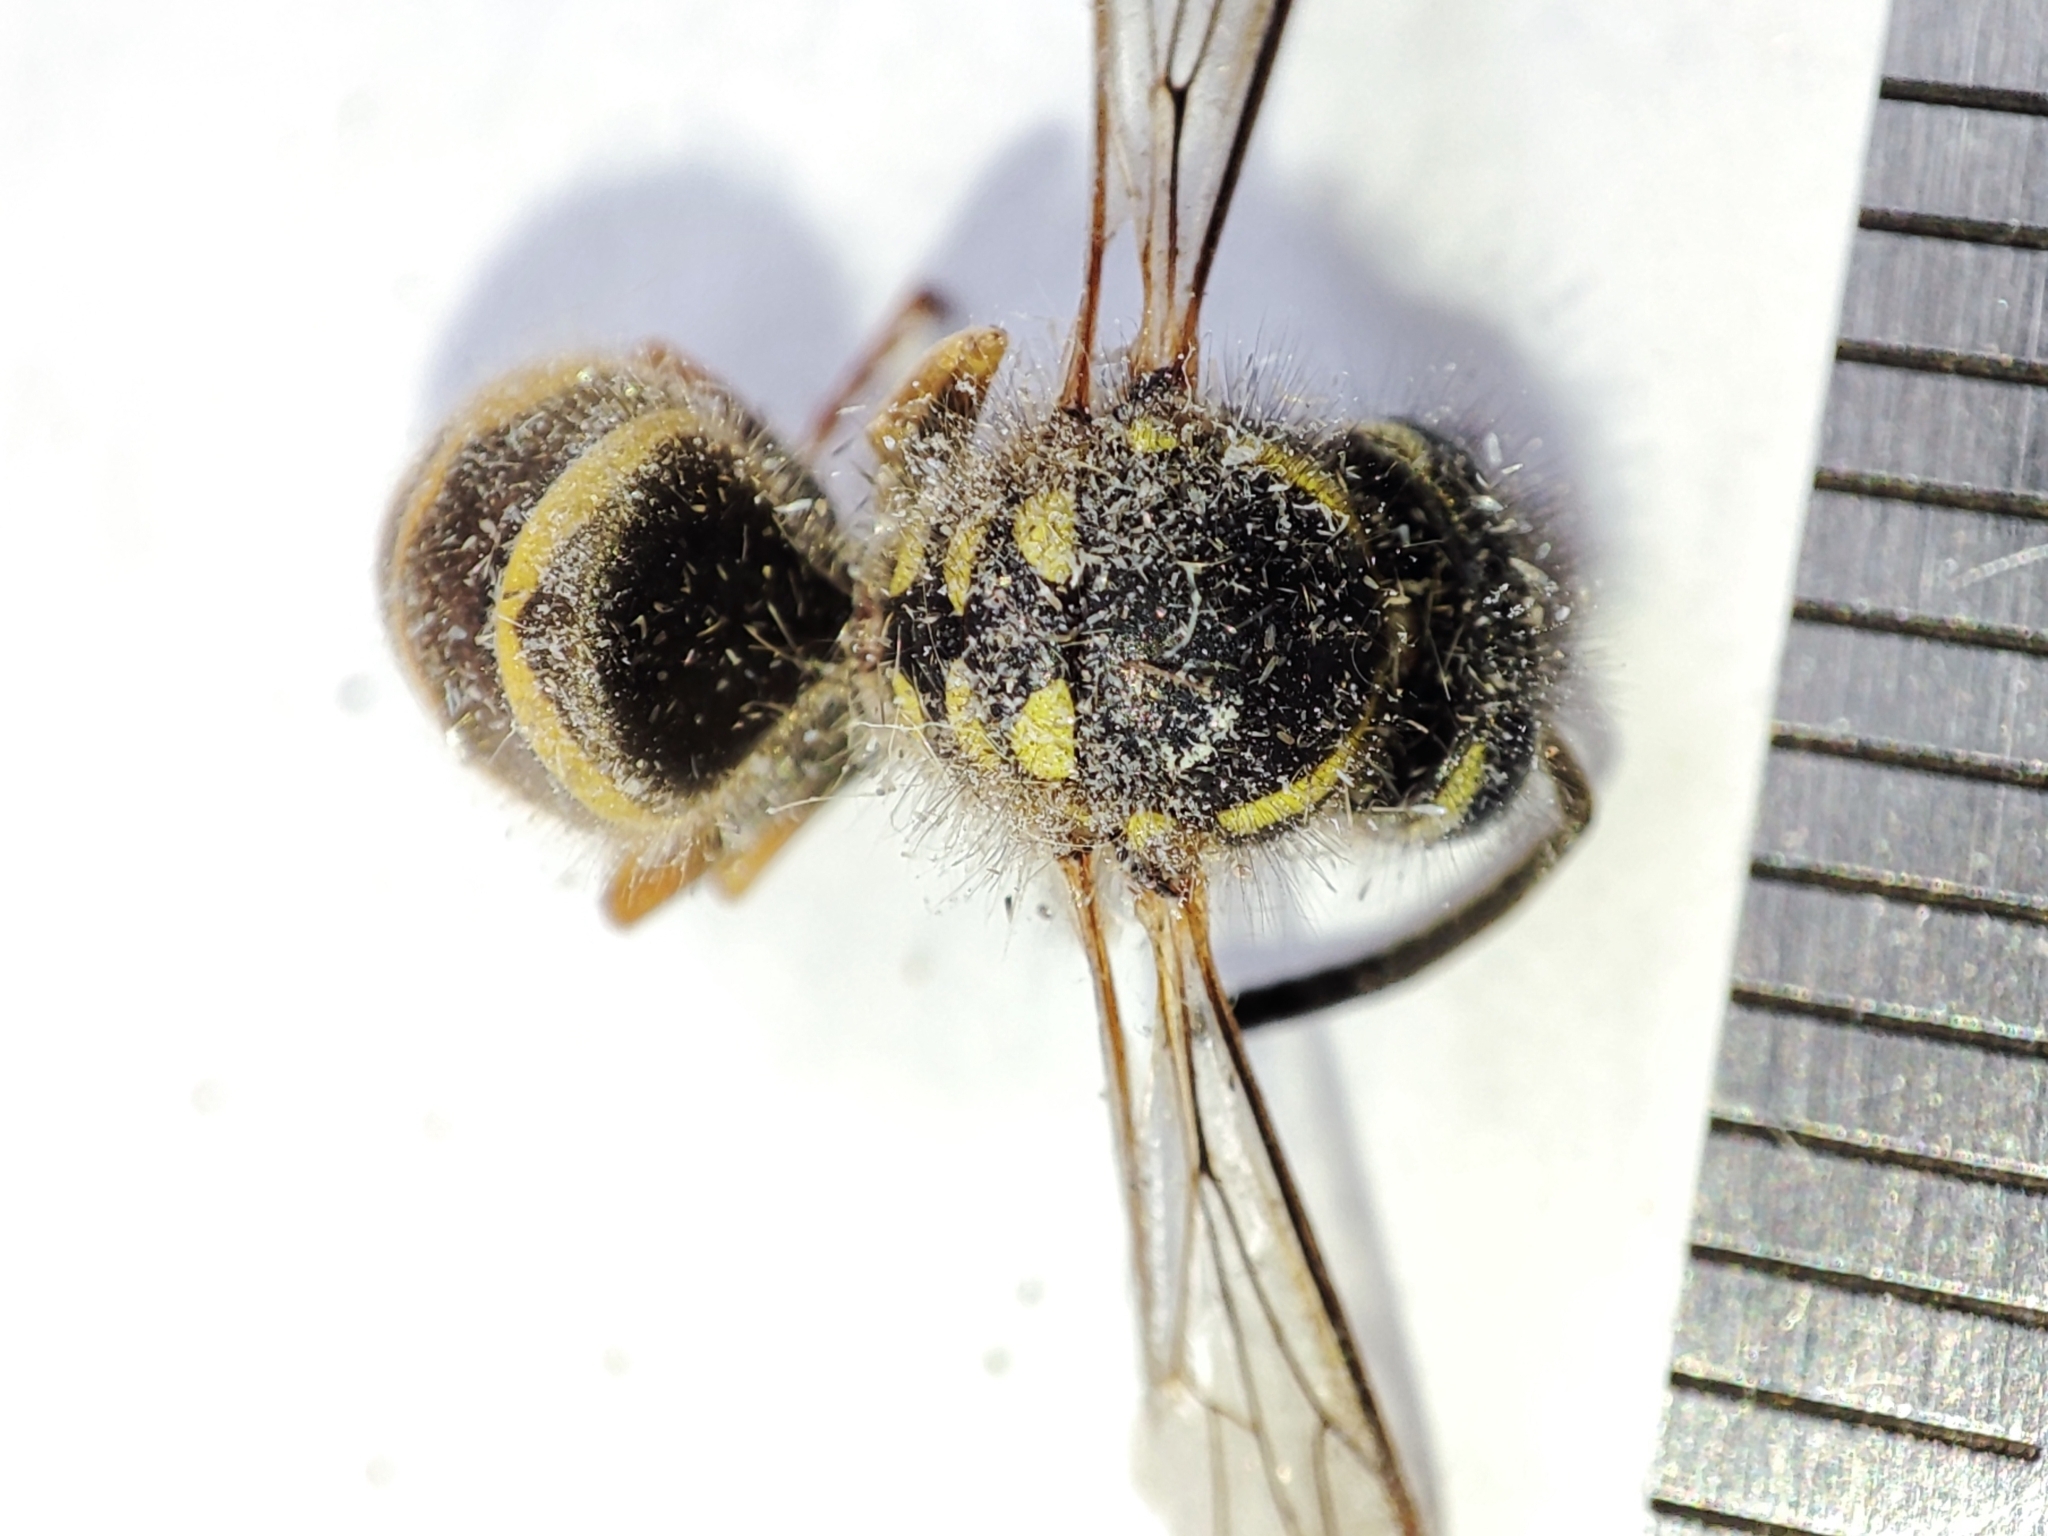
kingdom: Animalia
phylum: Arthropoda
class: Insecta
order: Hymenoptera
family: Vespidae
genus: Vespula
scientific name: Vespula vulgaris
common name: Common wasp
